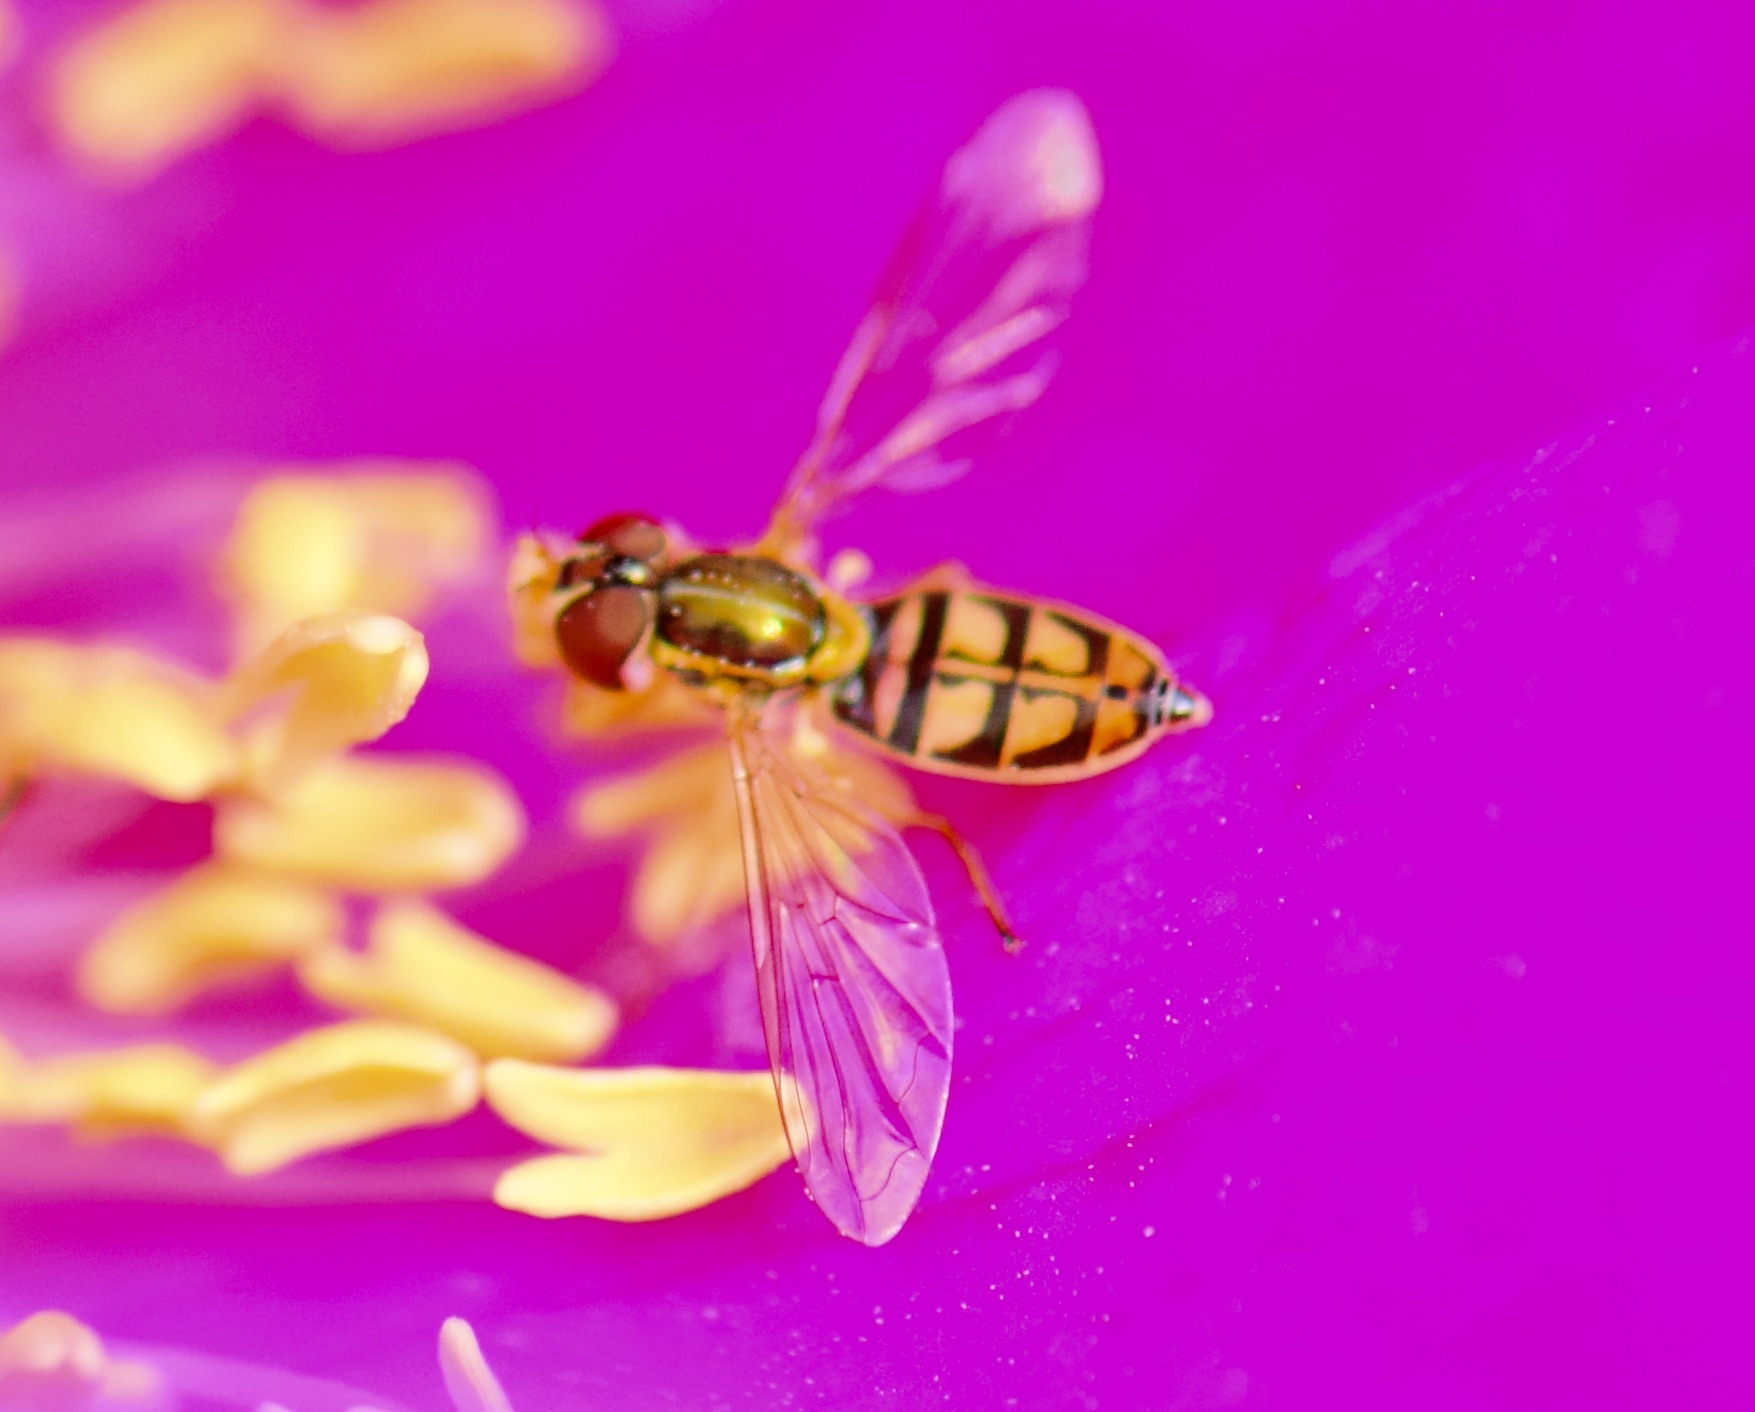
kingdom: Animalia
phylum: Arthropoda
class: Insecta
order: Diptera
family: Syrphidae
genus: Toxomerus
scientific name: Toxomerus marginatus
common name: Syrphid fly
